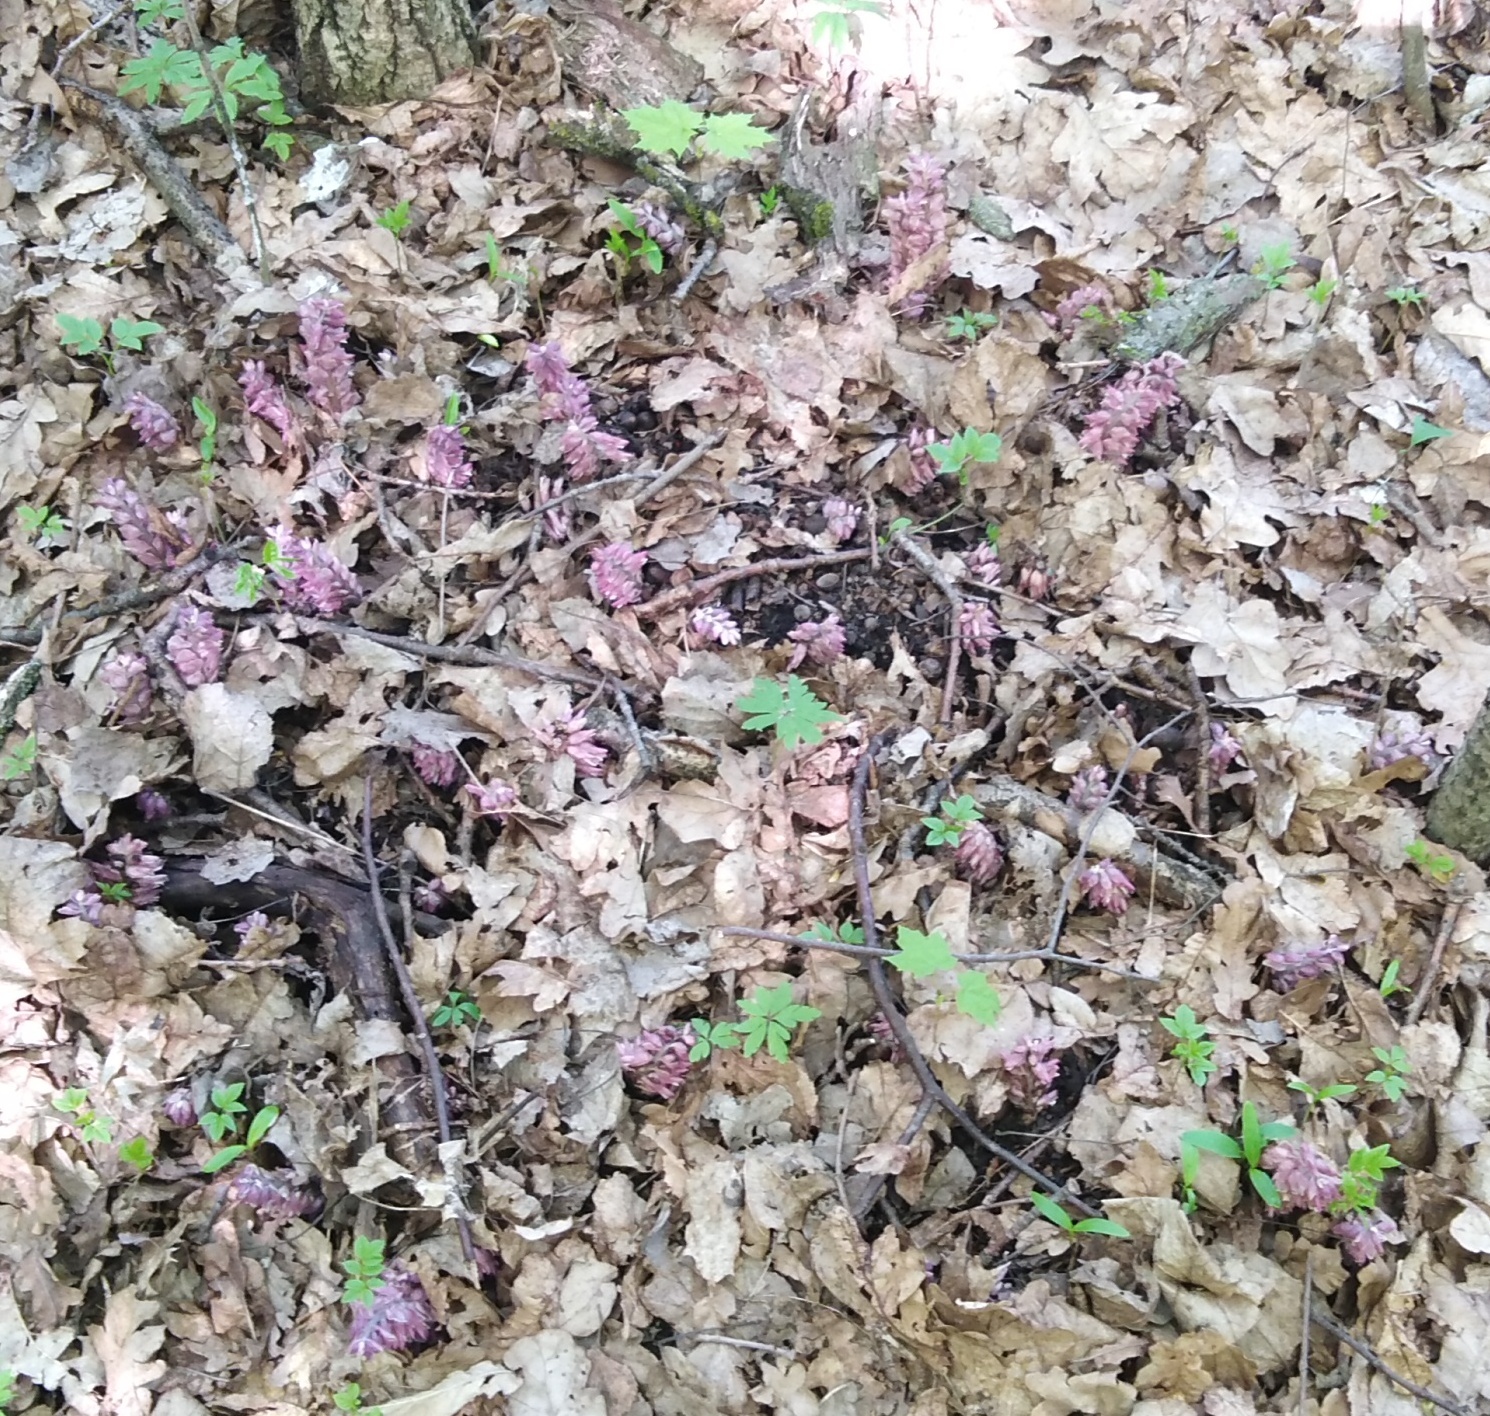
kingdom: Plantae
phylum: Tracheophyta
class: Magnoliopsida
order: Lamiales
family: Orobanchaceae
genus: Lathraea
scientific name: Lathraea squamaria
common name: Toothwort
